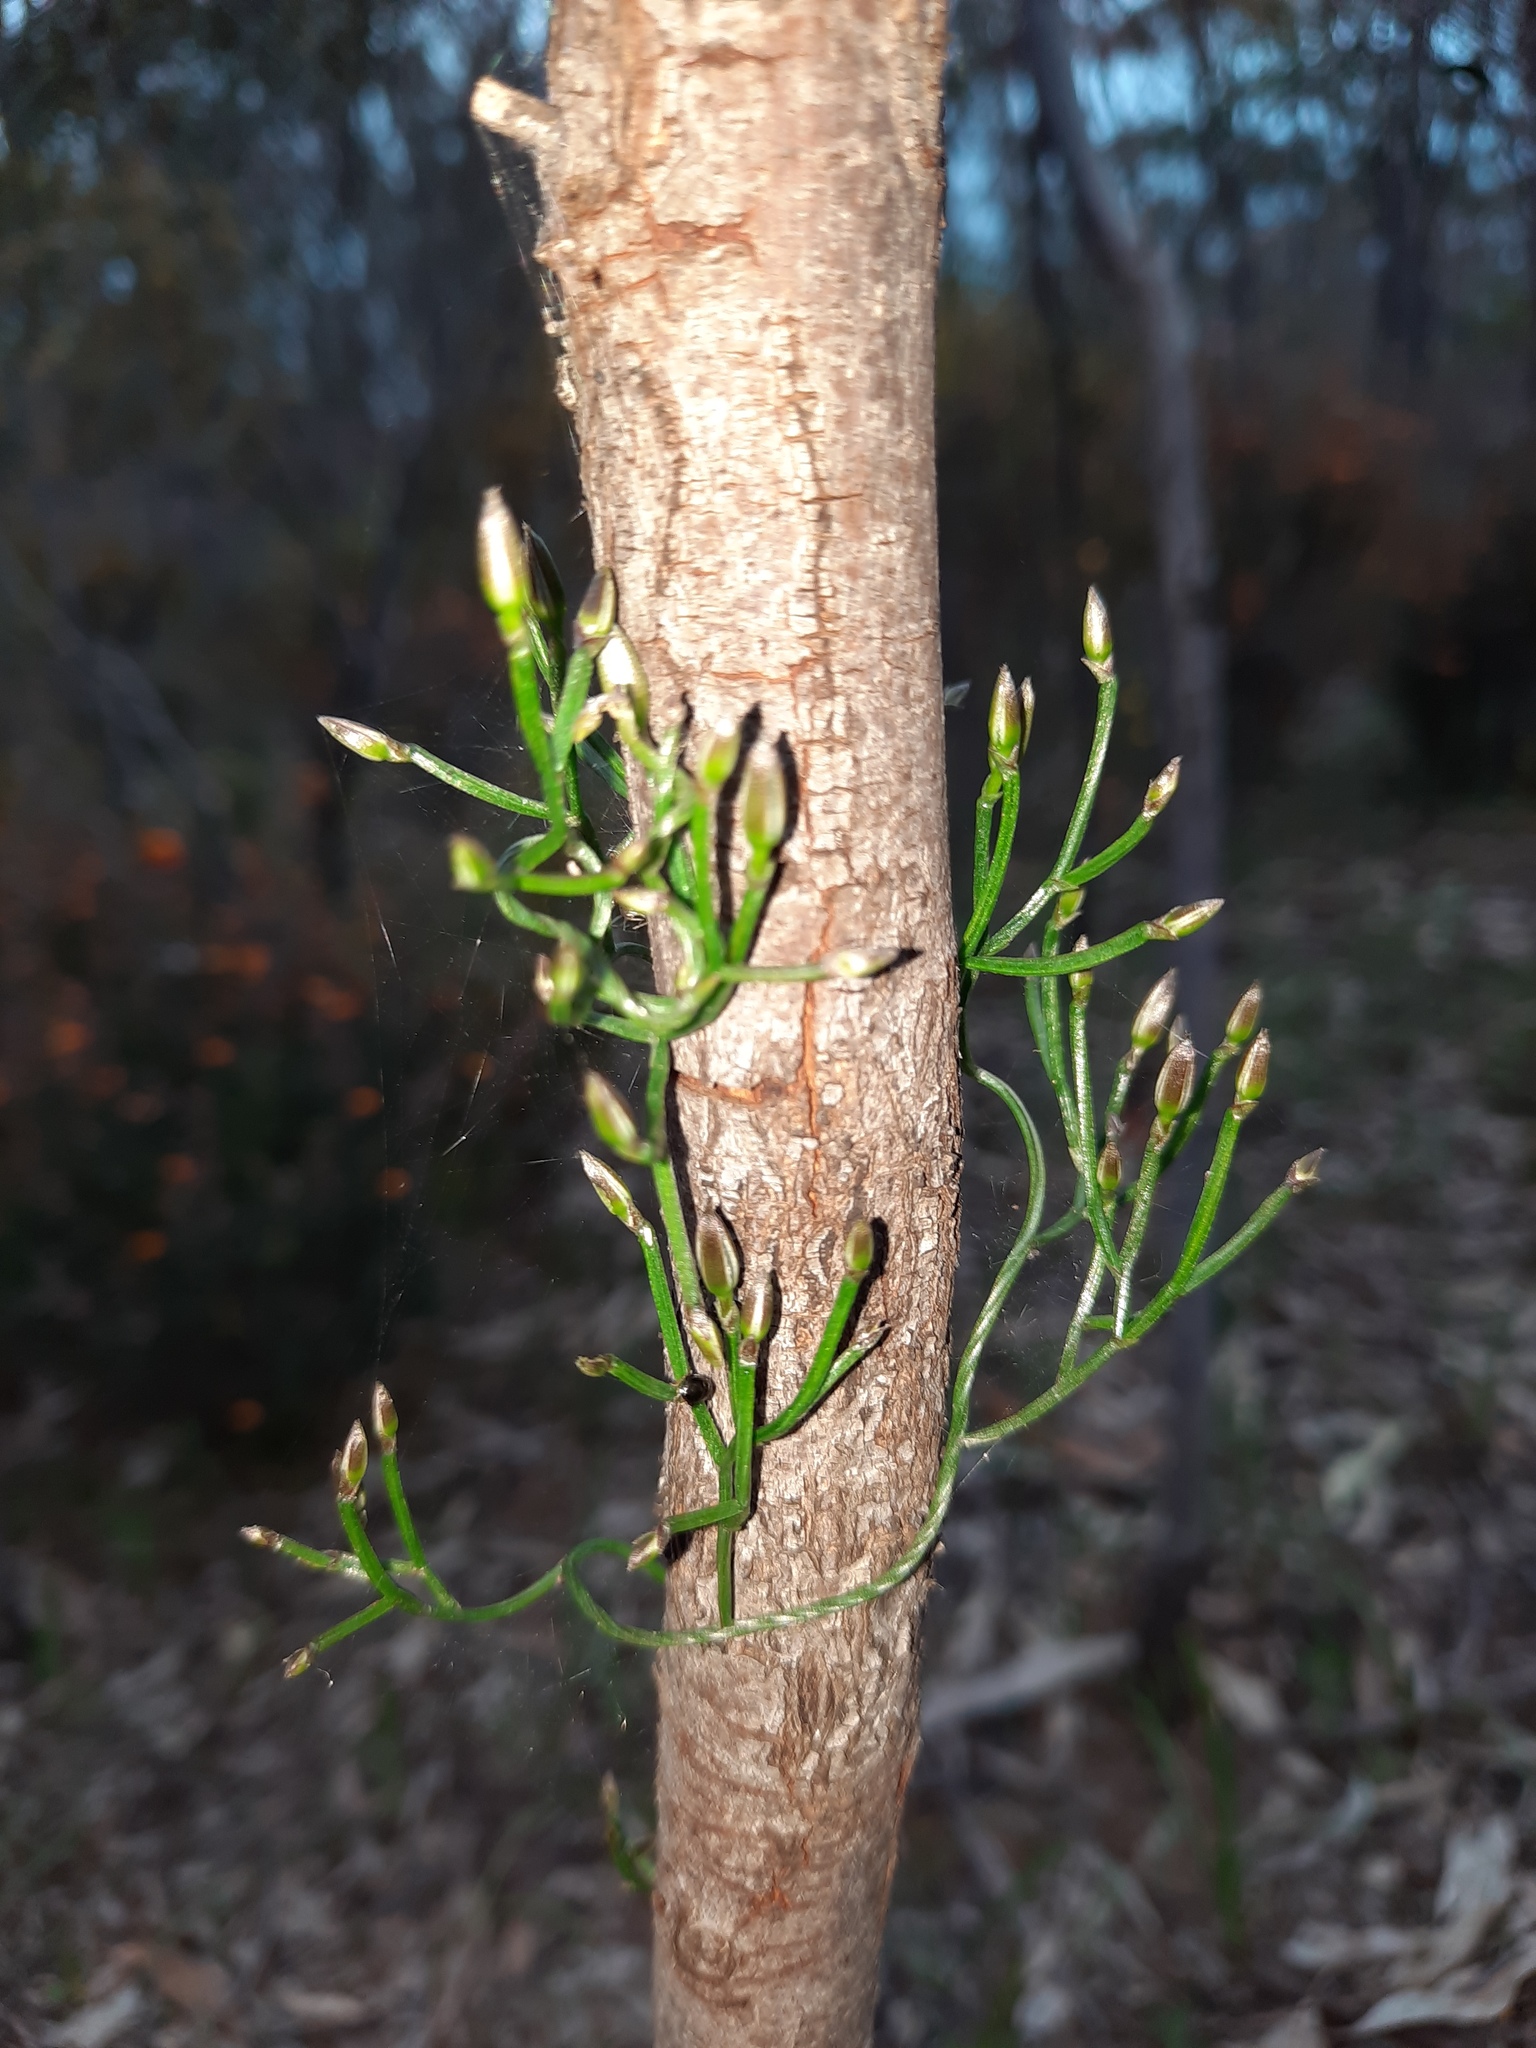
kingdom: Plantae
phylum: Tracheophyta
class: Liliopsida
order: Asparagales
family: Asparagaceae
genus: Thysanotus
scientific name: Thysanotus patersonii
